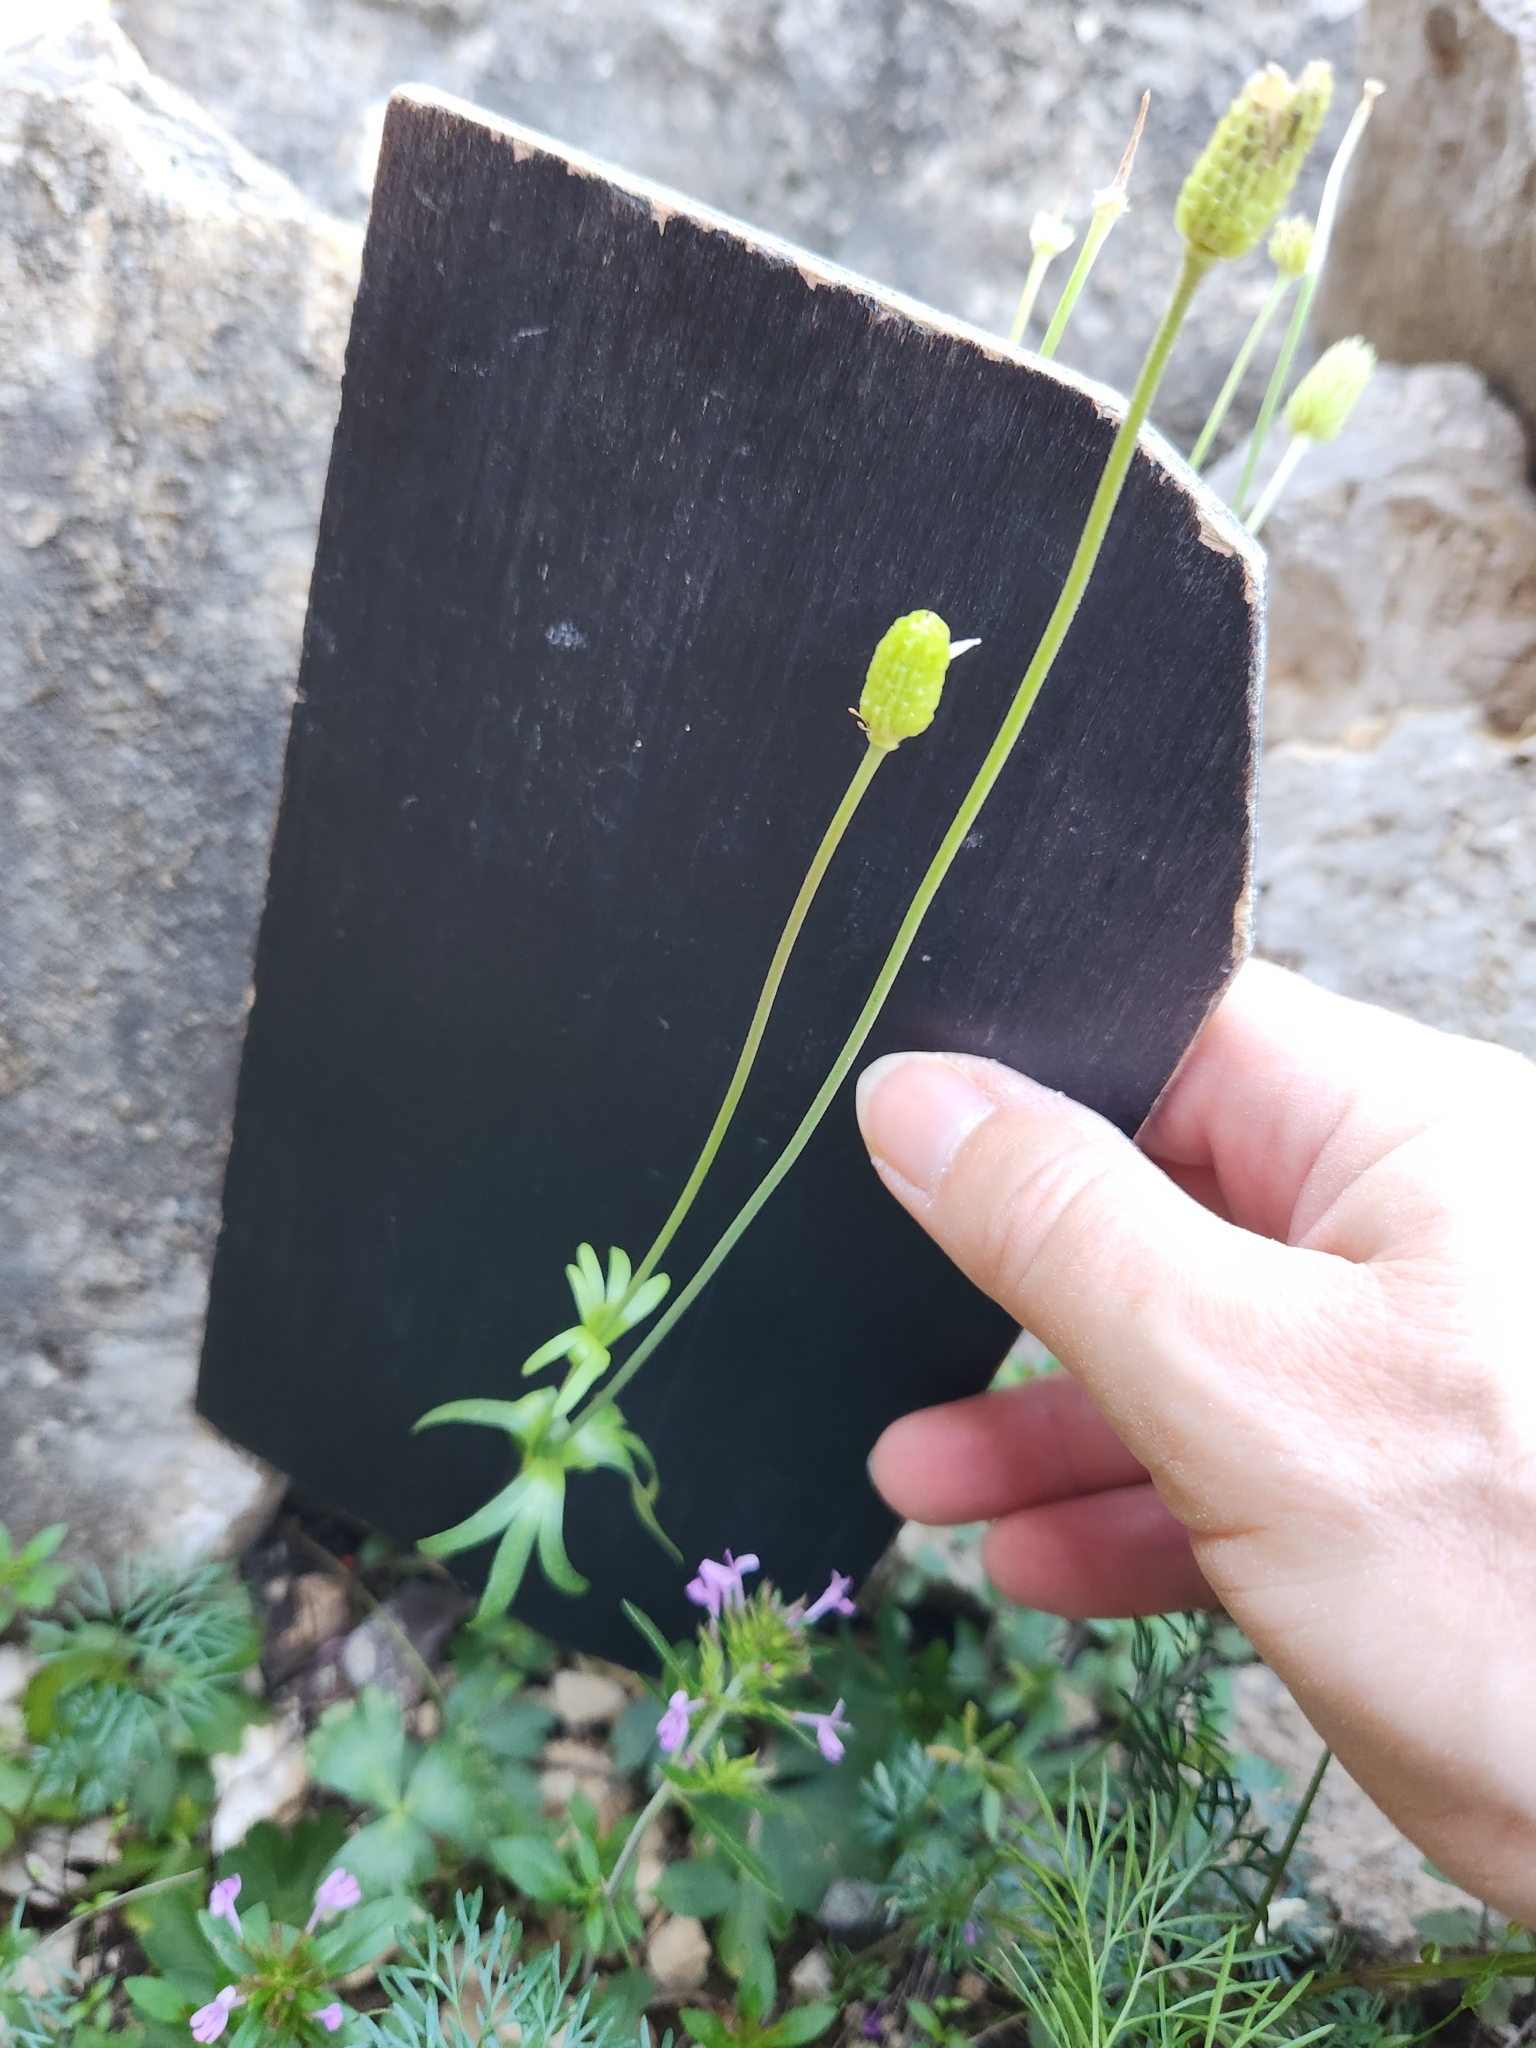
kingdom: Plantae
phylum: Tracheophyta
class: Magnoliopsida
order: Ranunculales
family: Ranunculaceae
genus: Anemone
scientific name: Anemone edwardsiana
